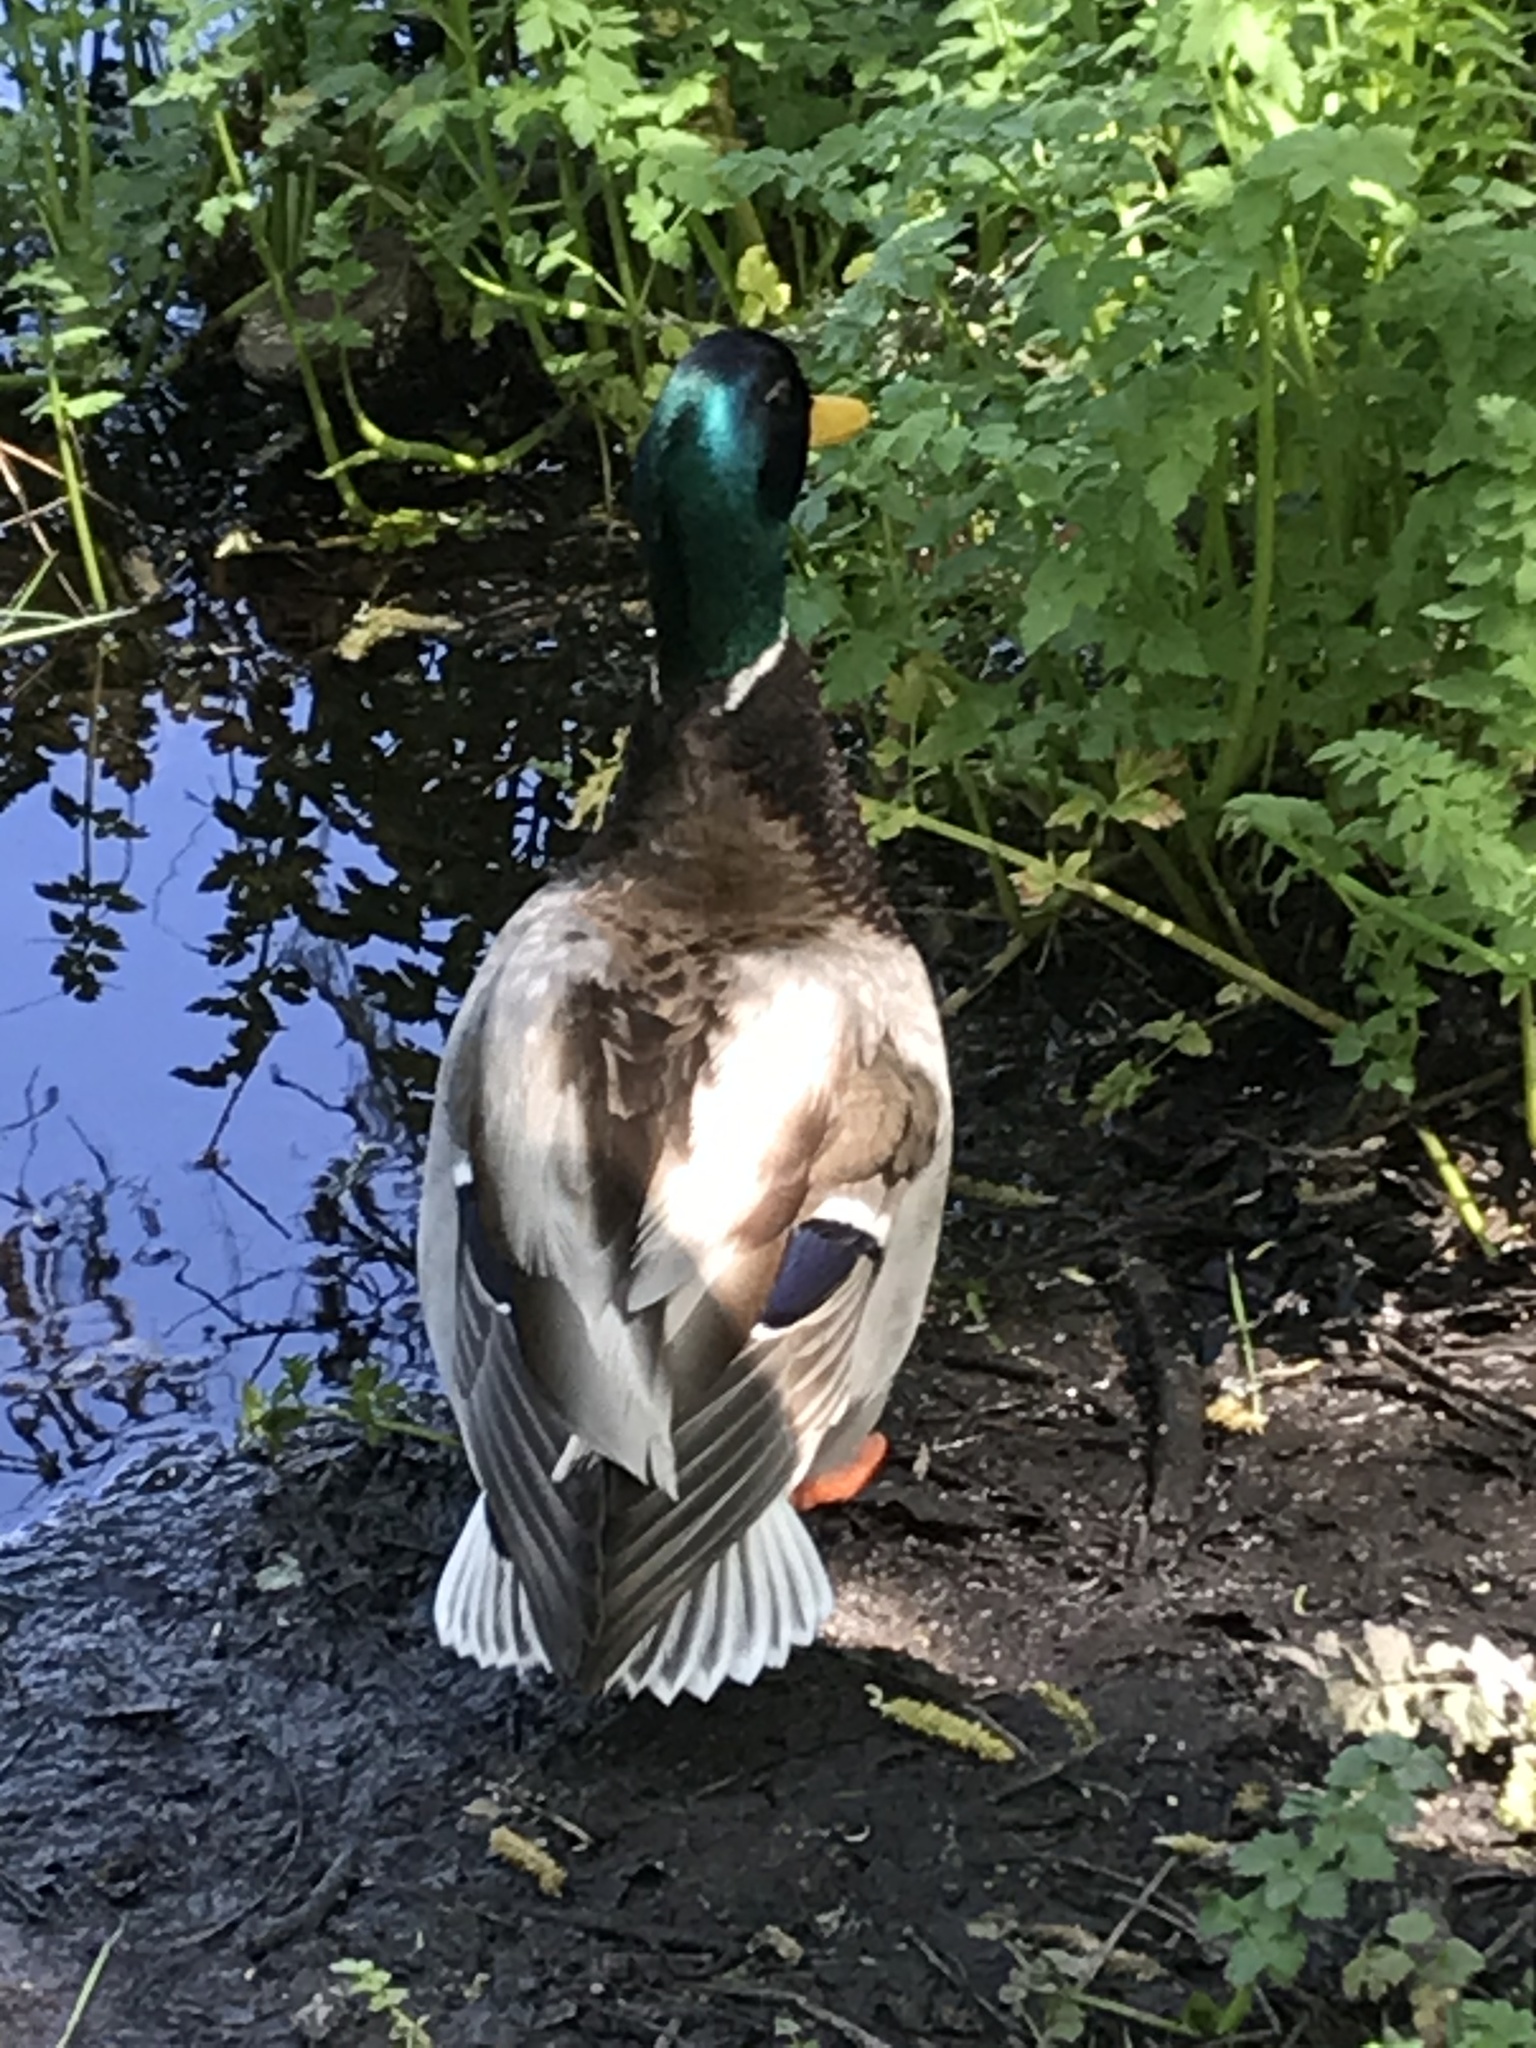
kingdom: Animalia
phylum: Chordata
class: Aves
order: Anseriformes
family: Anatidae
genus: Anas
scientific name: Anas platyrhynchos
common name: Mallard
